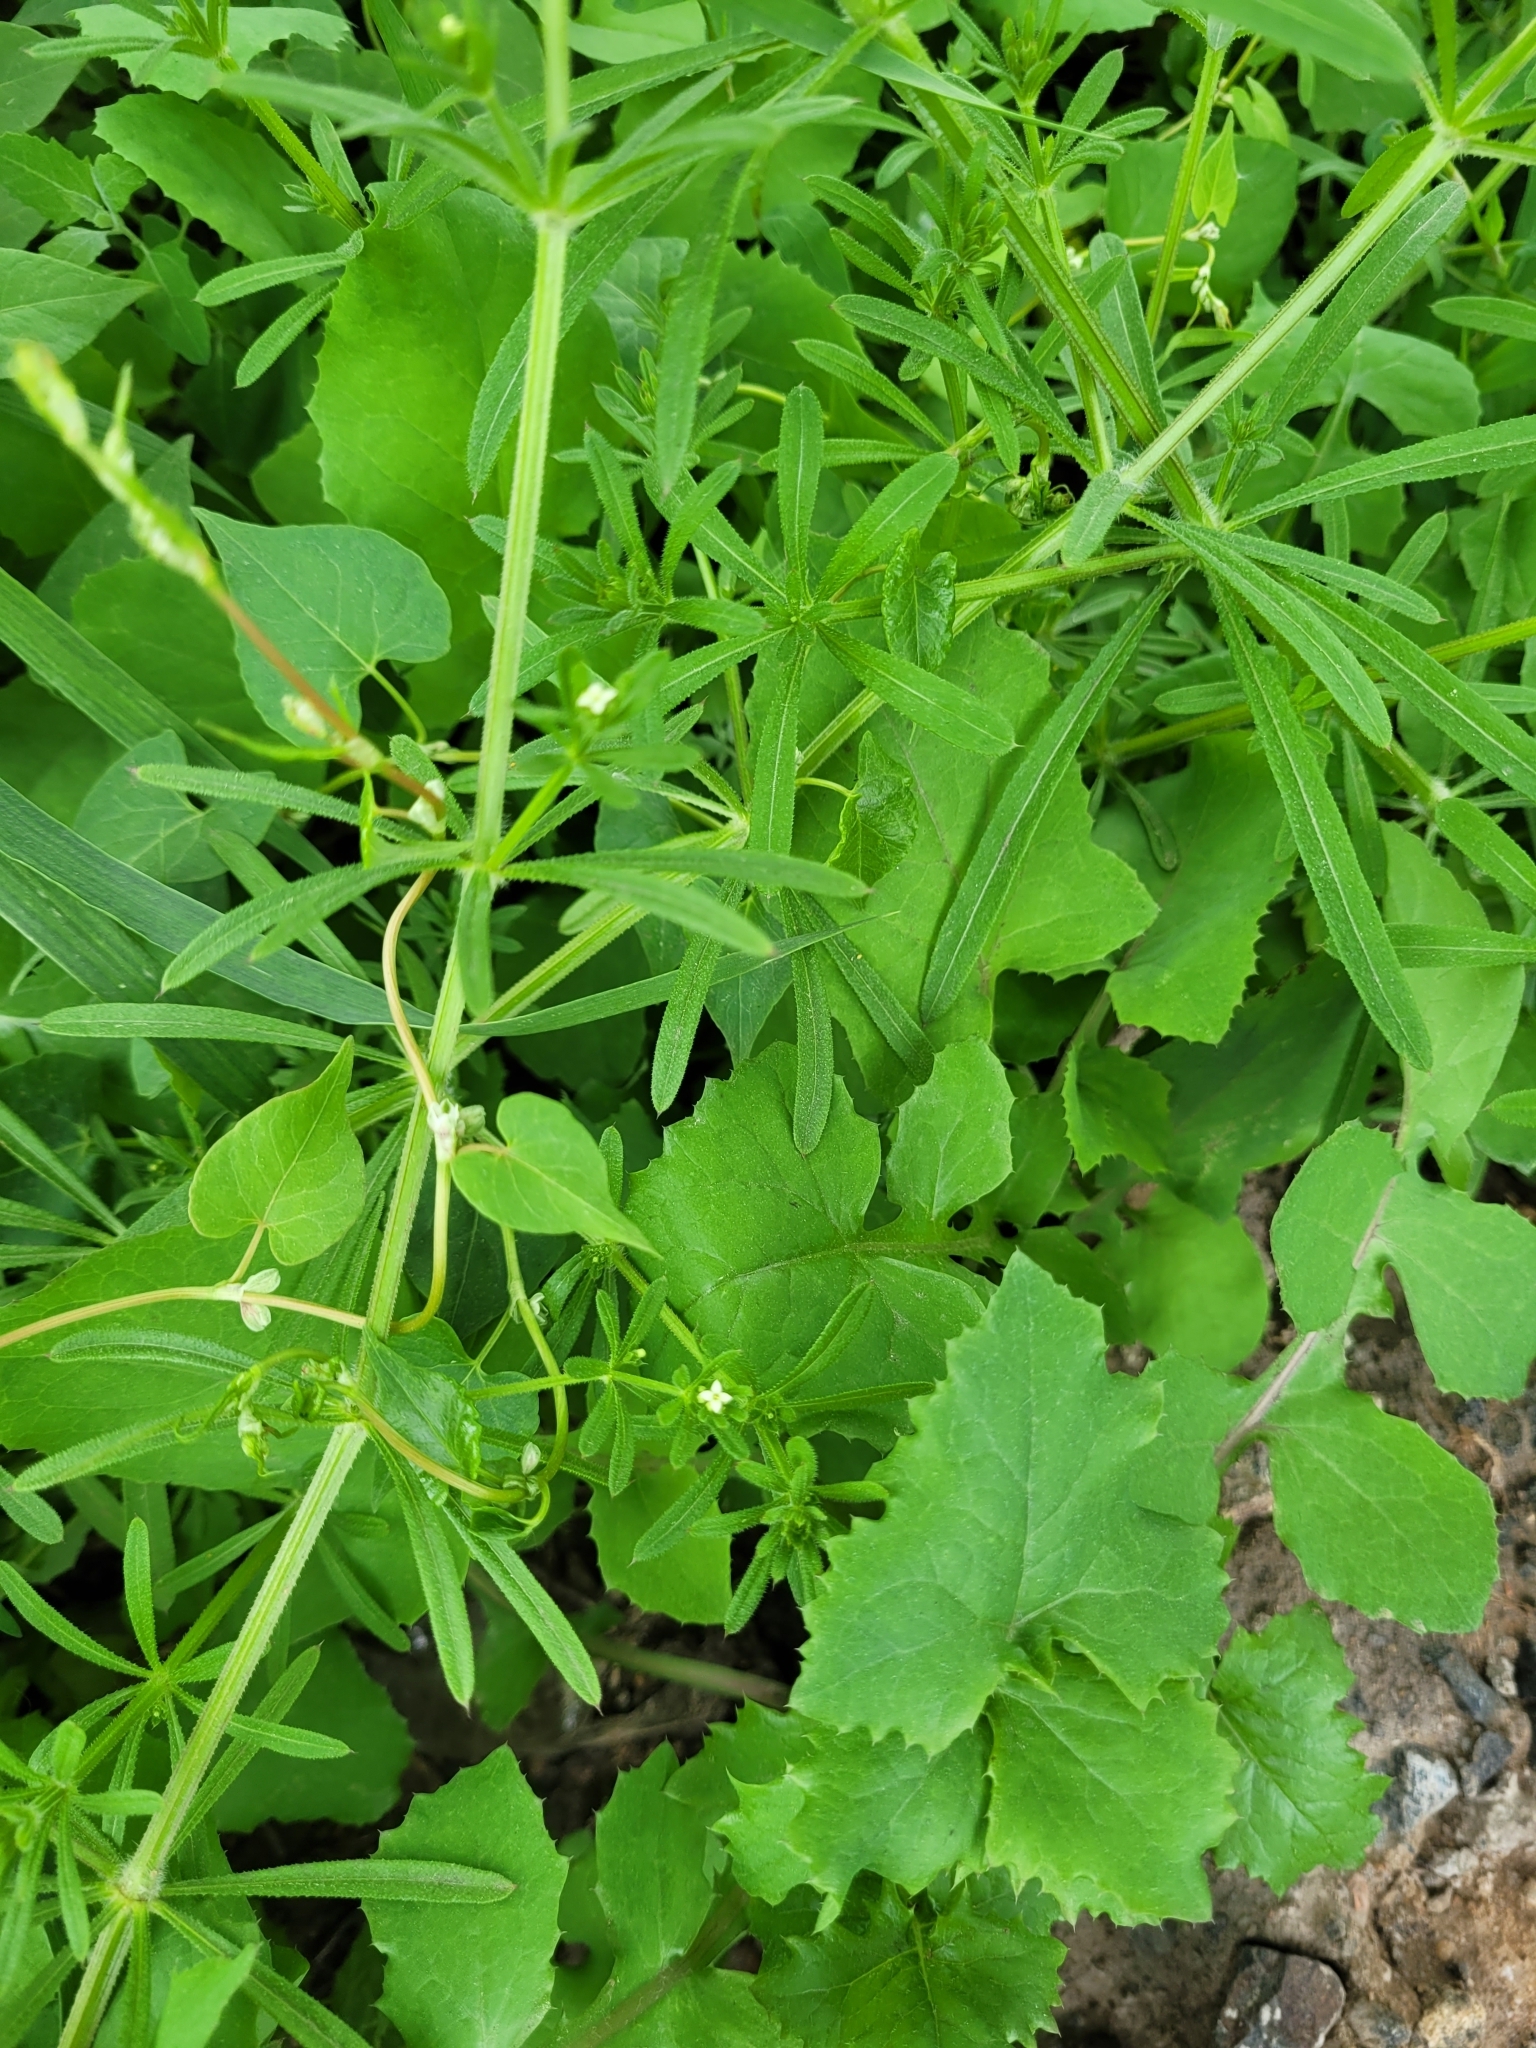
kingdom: Plantae
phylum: Tracheophyta
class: Magnoliopsida
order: Gentianales
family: Rubiaceae
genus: Galium
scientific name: Galium aparine
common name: Cleavers
